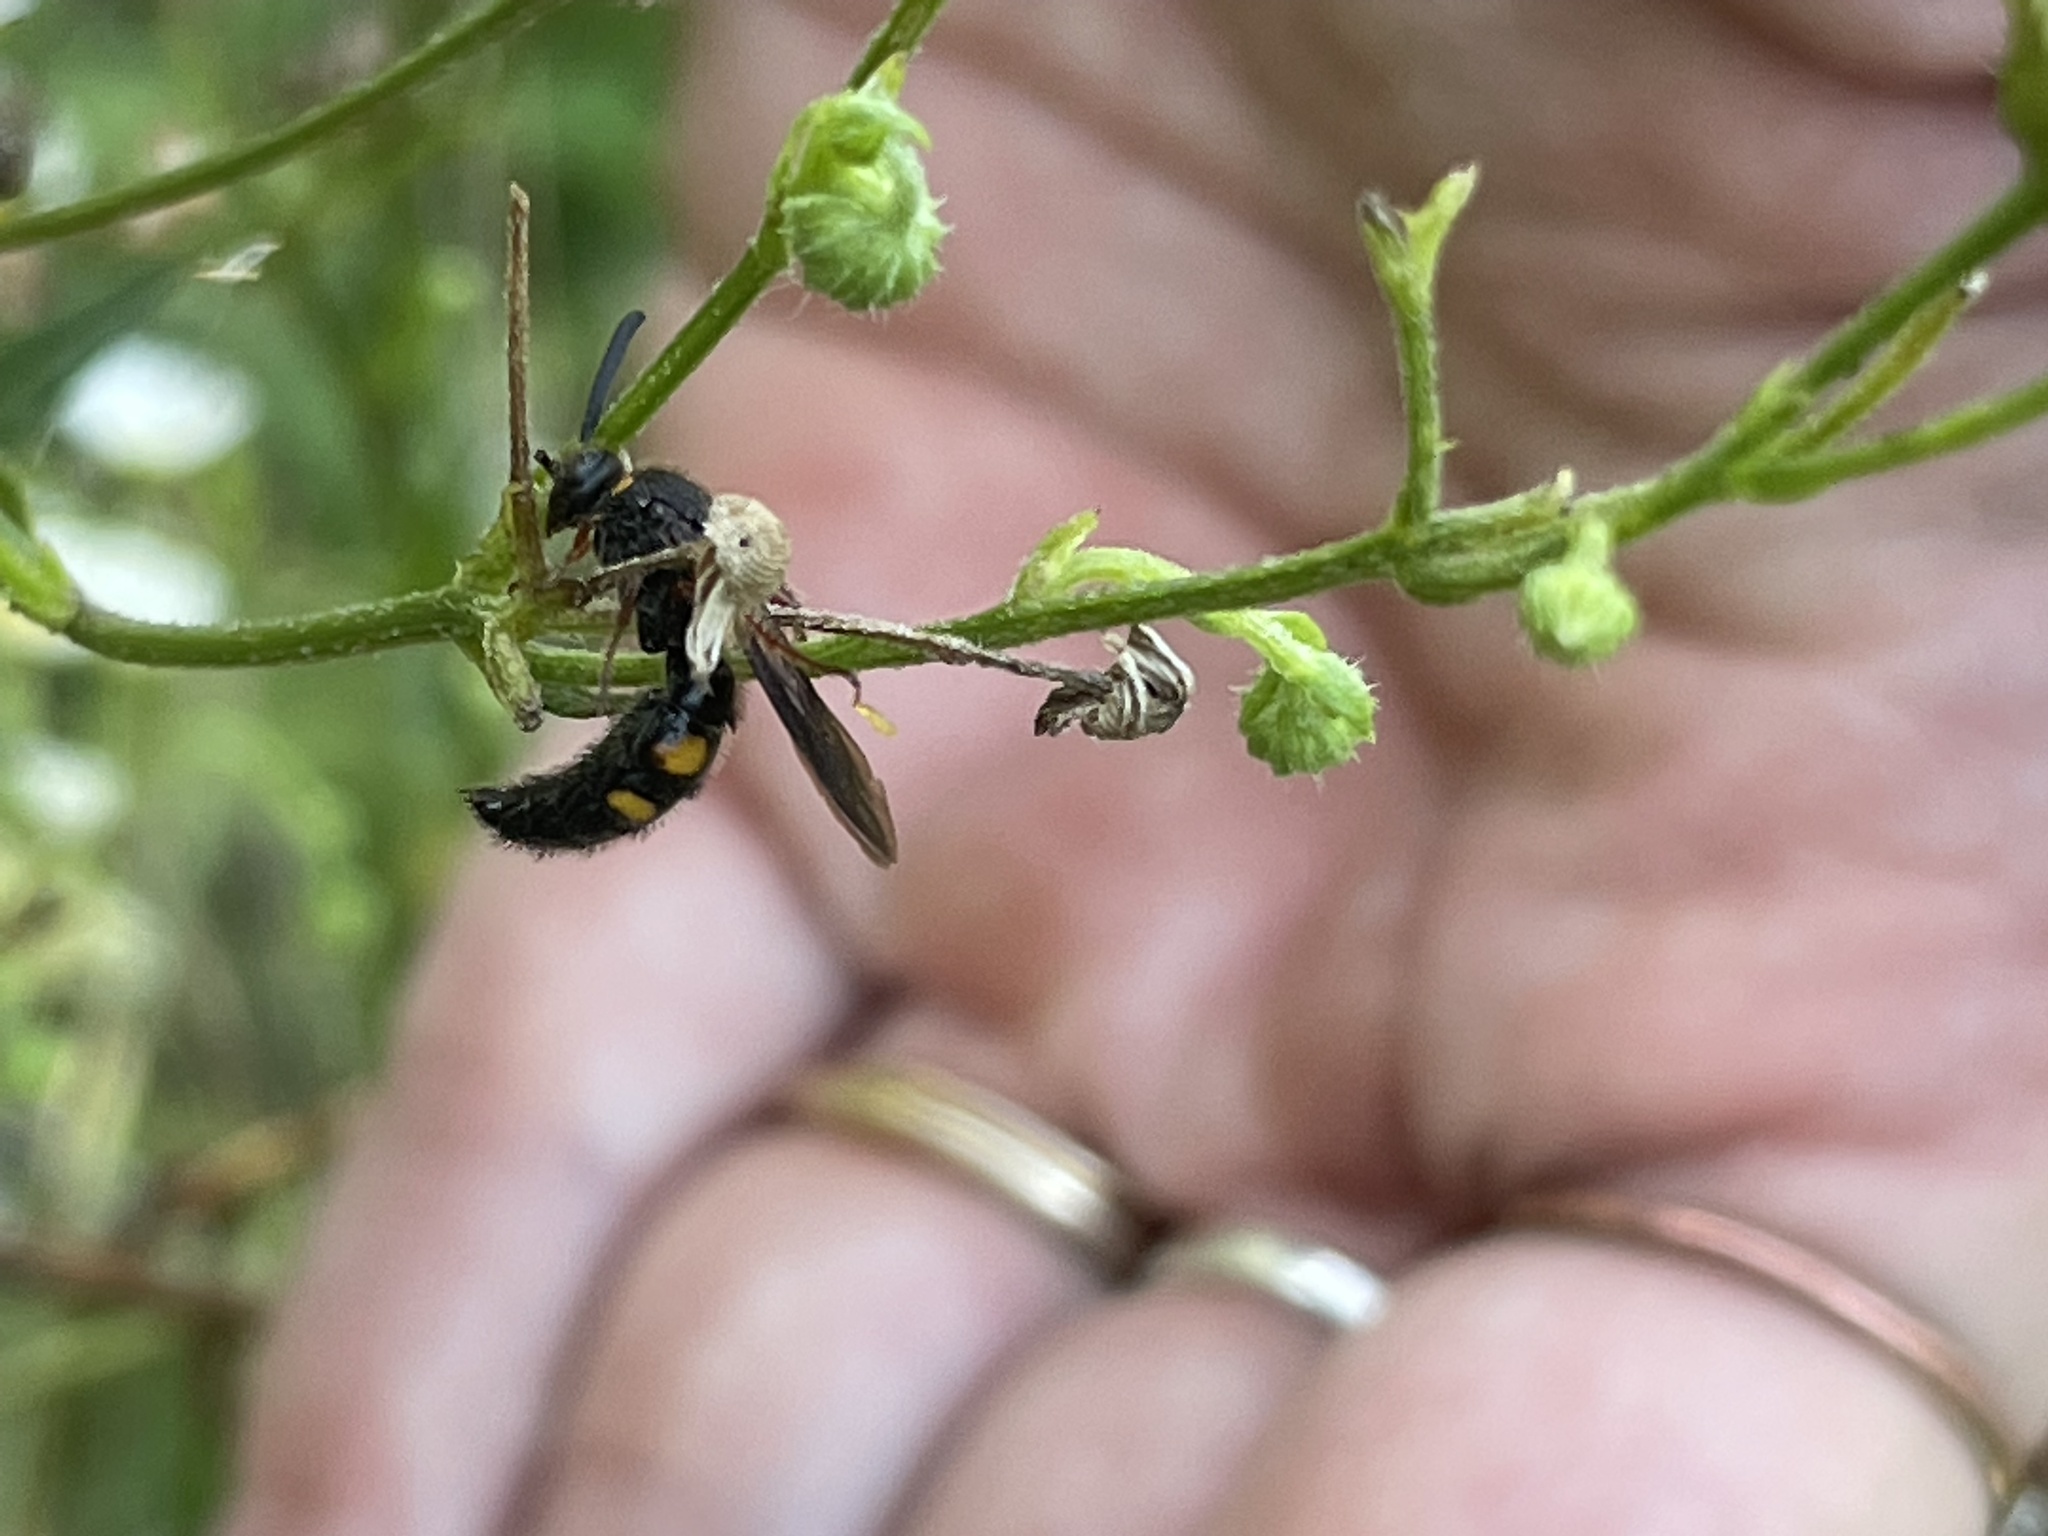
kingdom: Animalia
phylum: Arthropoda
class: Insecta
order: Hymenoptera
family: Scoliidae
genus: Scolia
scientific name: Scolia nobilitata
